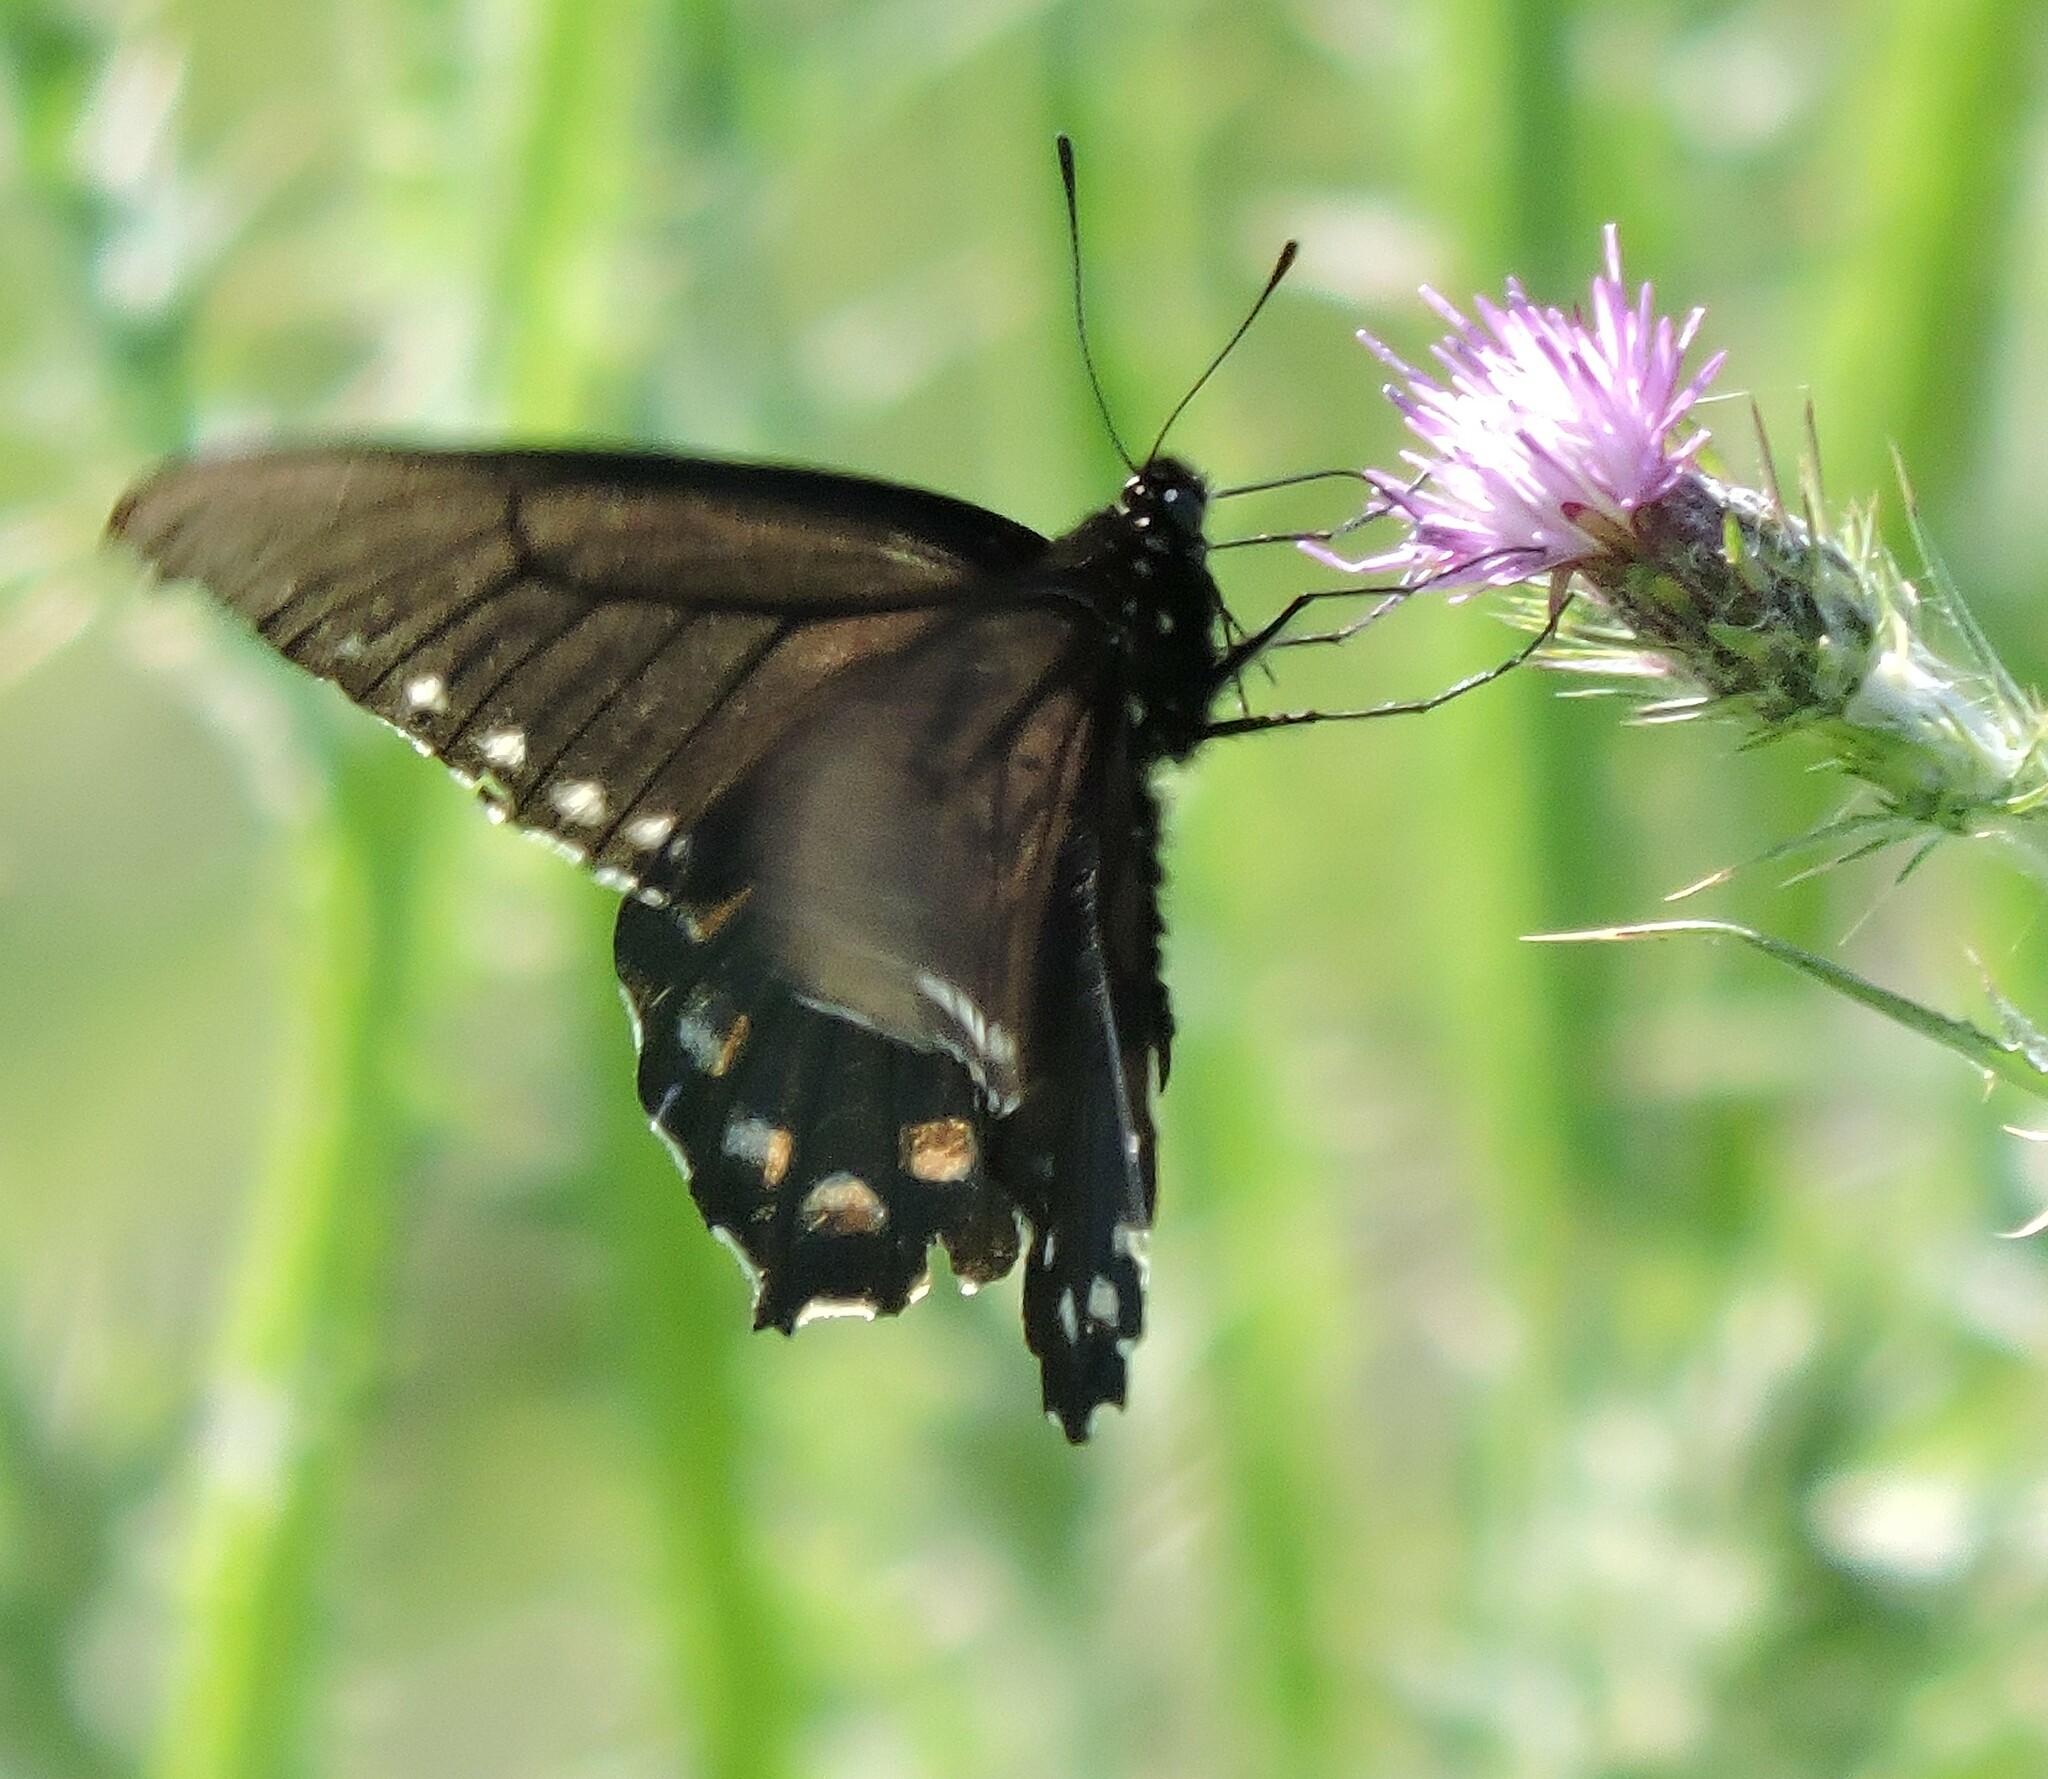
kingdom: Animalia
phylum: Arthropoda
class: Insecta
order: Lepidoptera
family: Papilionidae
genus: Battus
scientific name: Battus philenor
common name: Pipevine swallowtail
